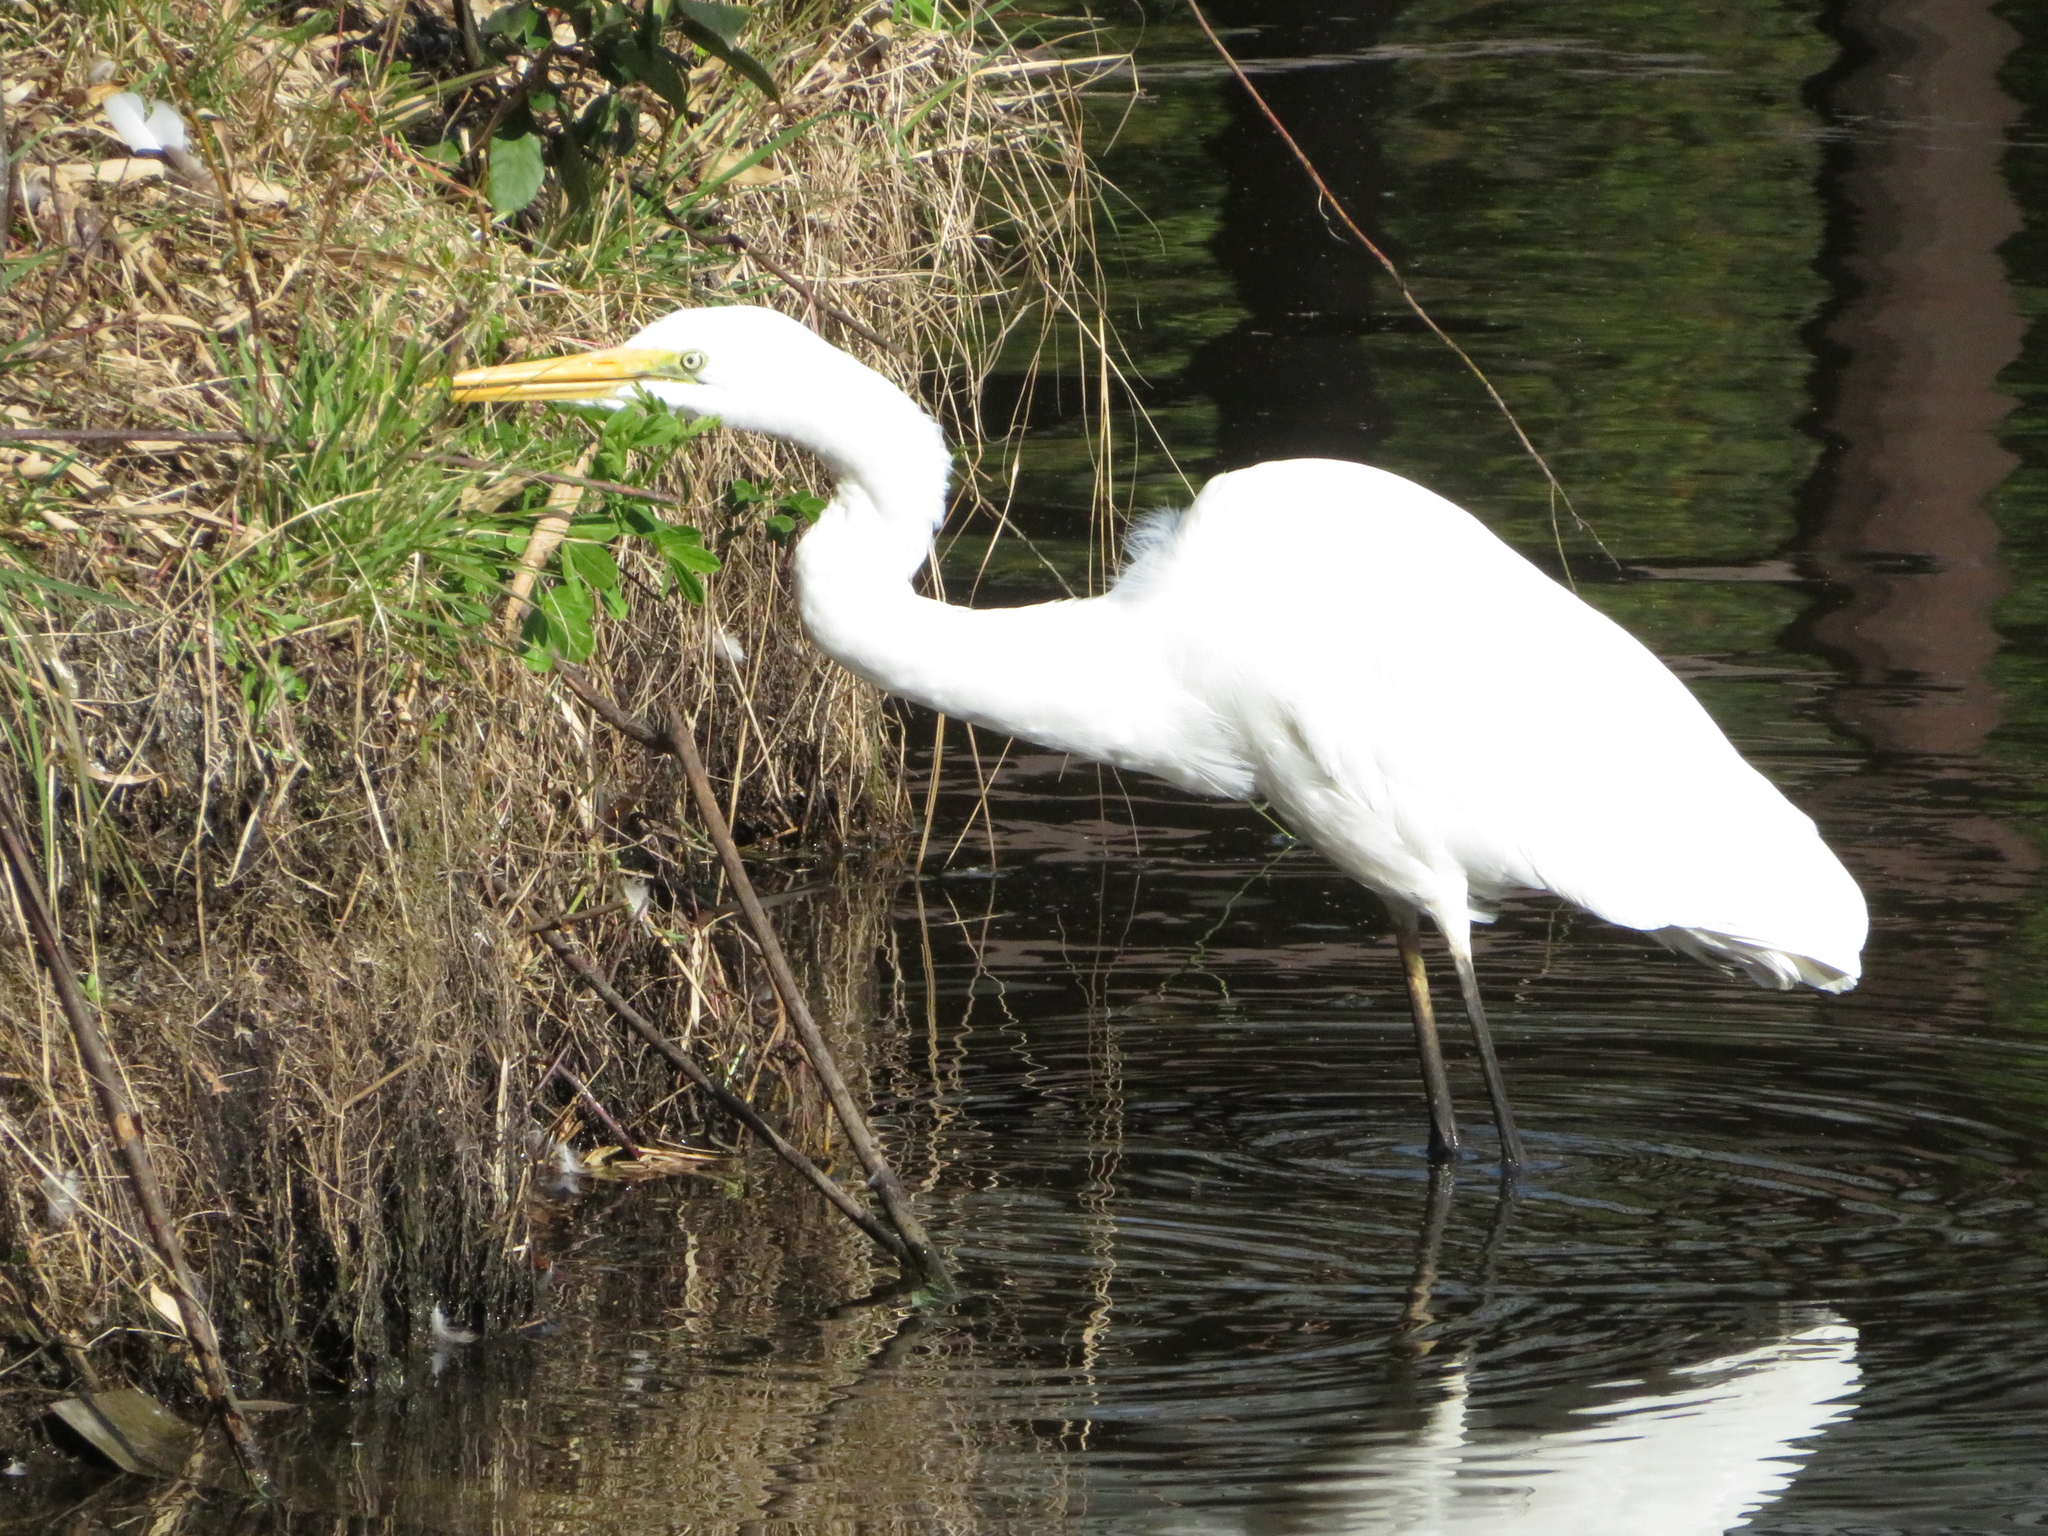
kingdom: Animalia
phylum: Chordata
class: Aves
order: Pelecaniformes
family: Ardeidae
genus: Ardea
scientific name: Ardea modesta
